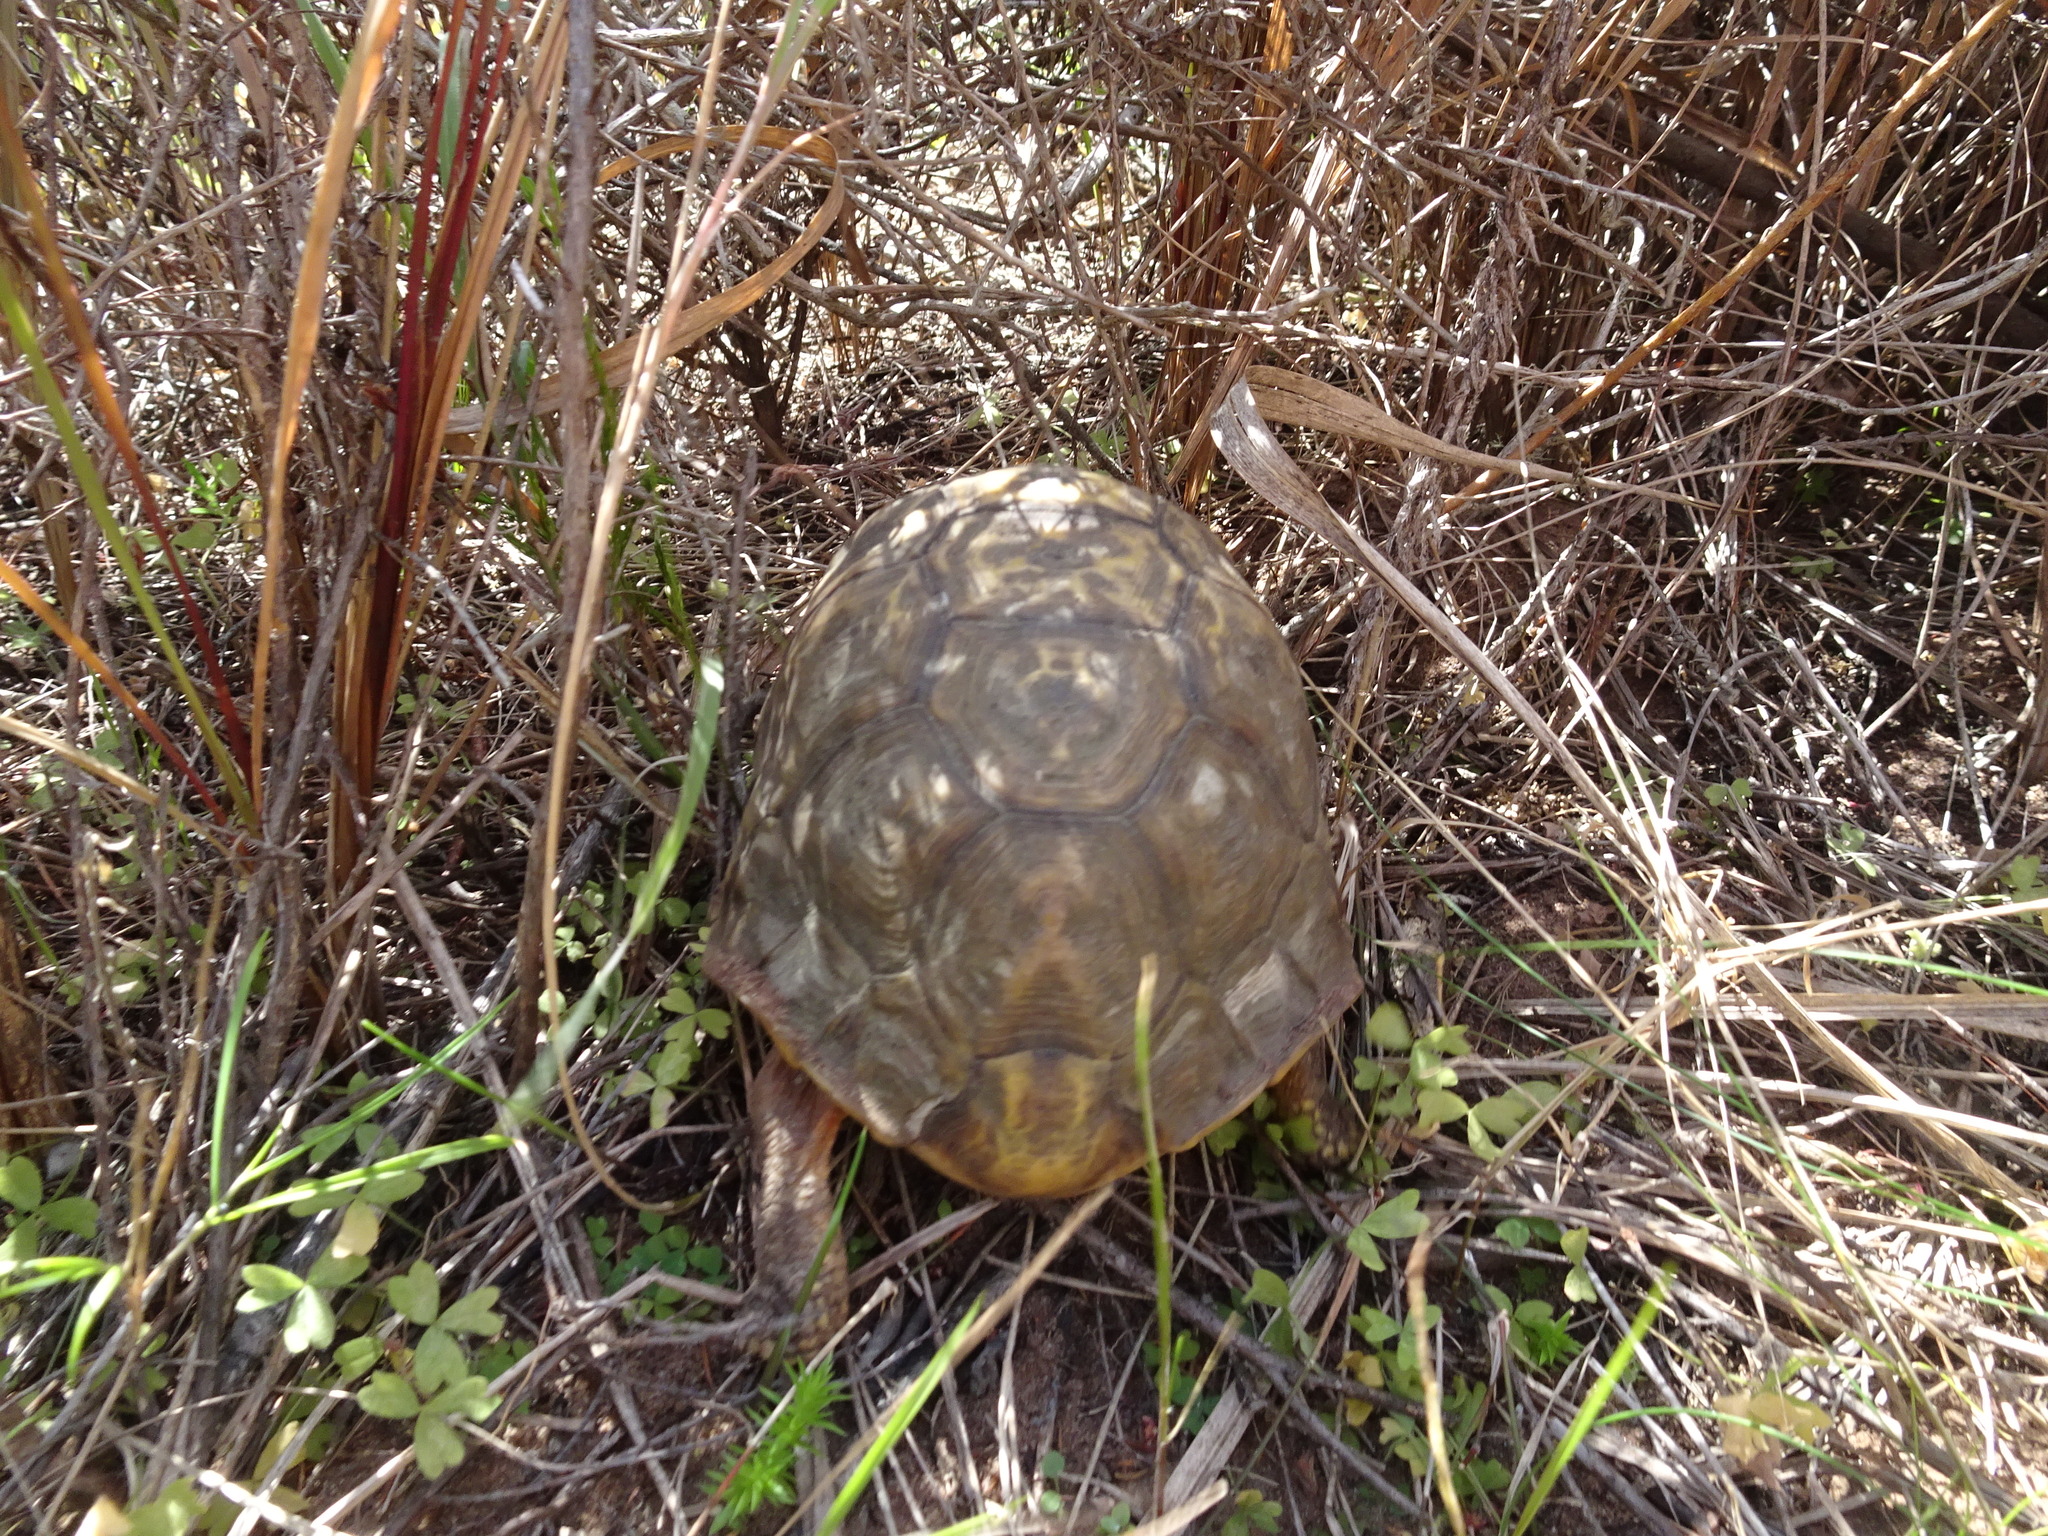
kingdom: Animalia
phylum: Chordata
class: Testudines
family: Testudinidae
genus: Chersina
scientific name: Chersina angulata
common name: South african bowsprit tortoise
